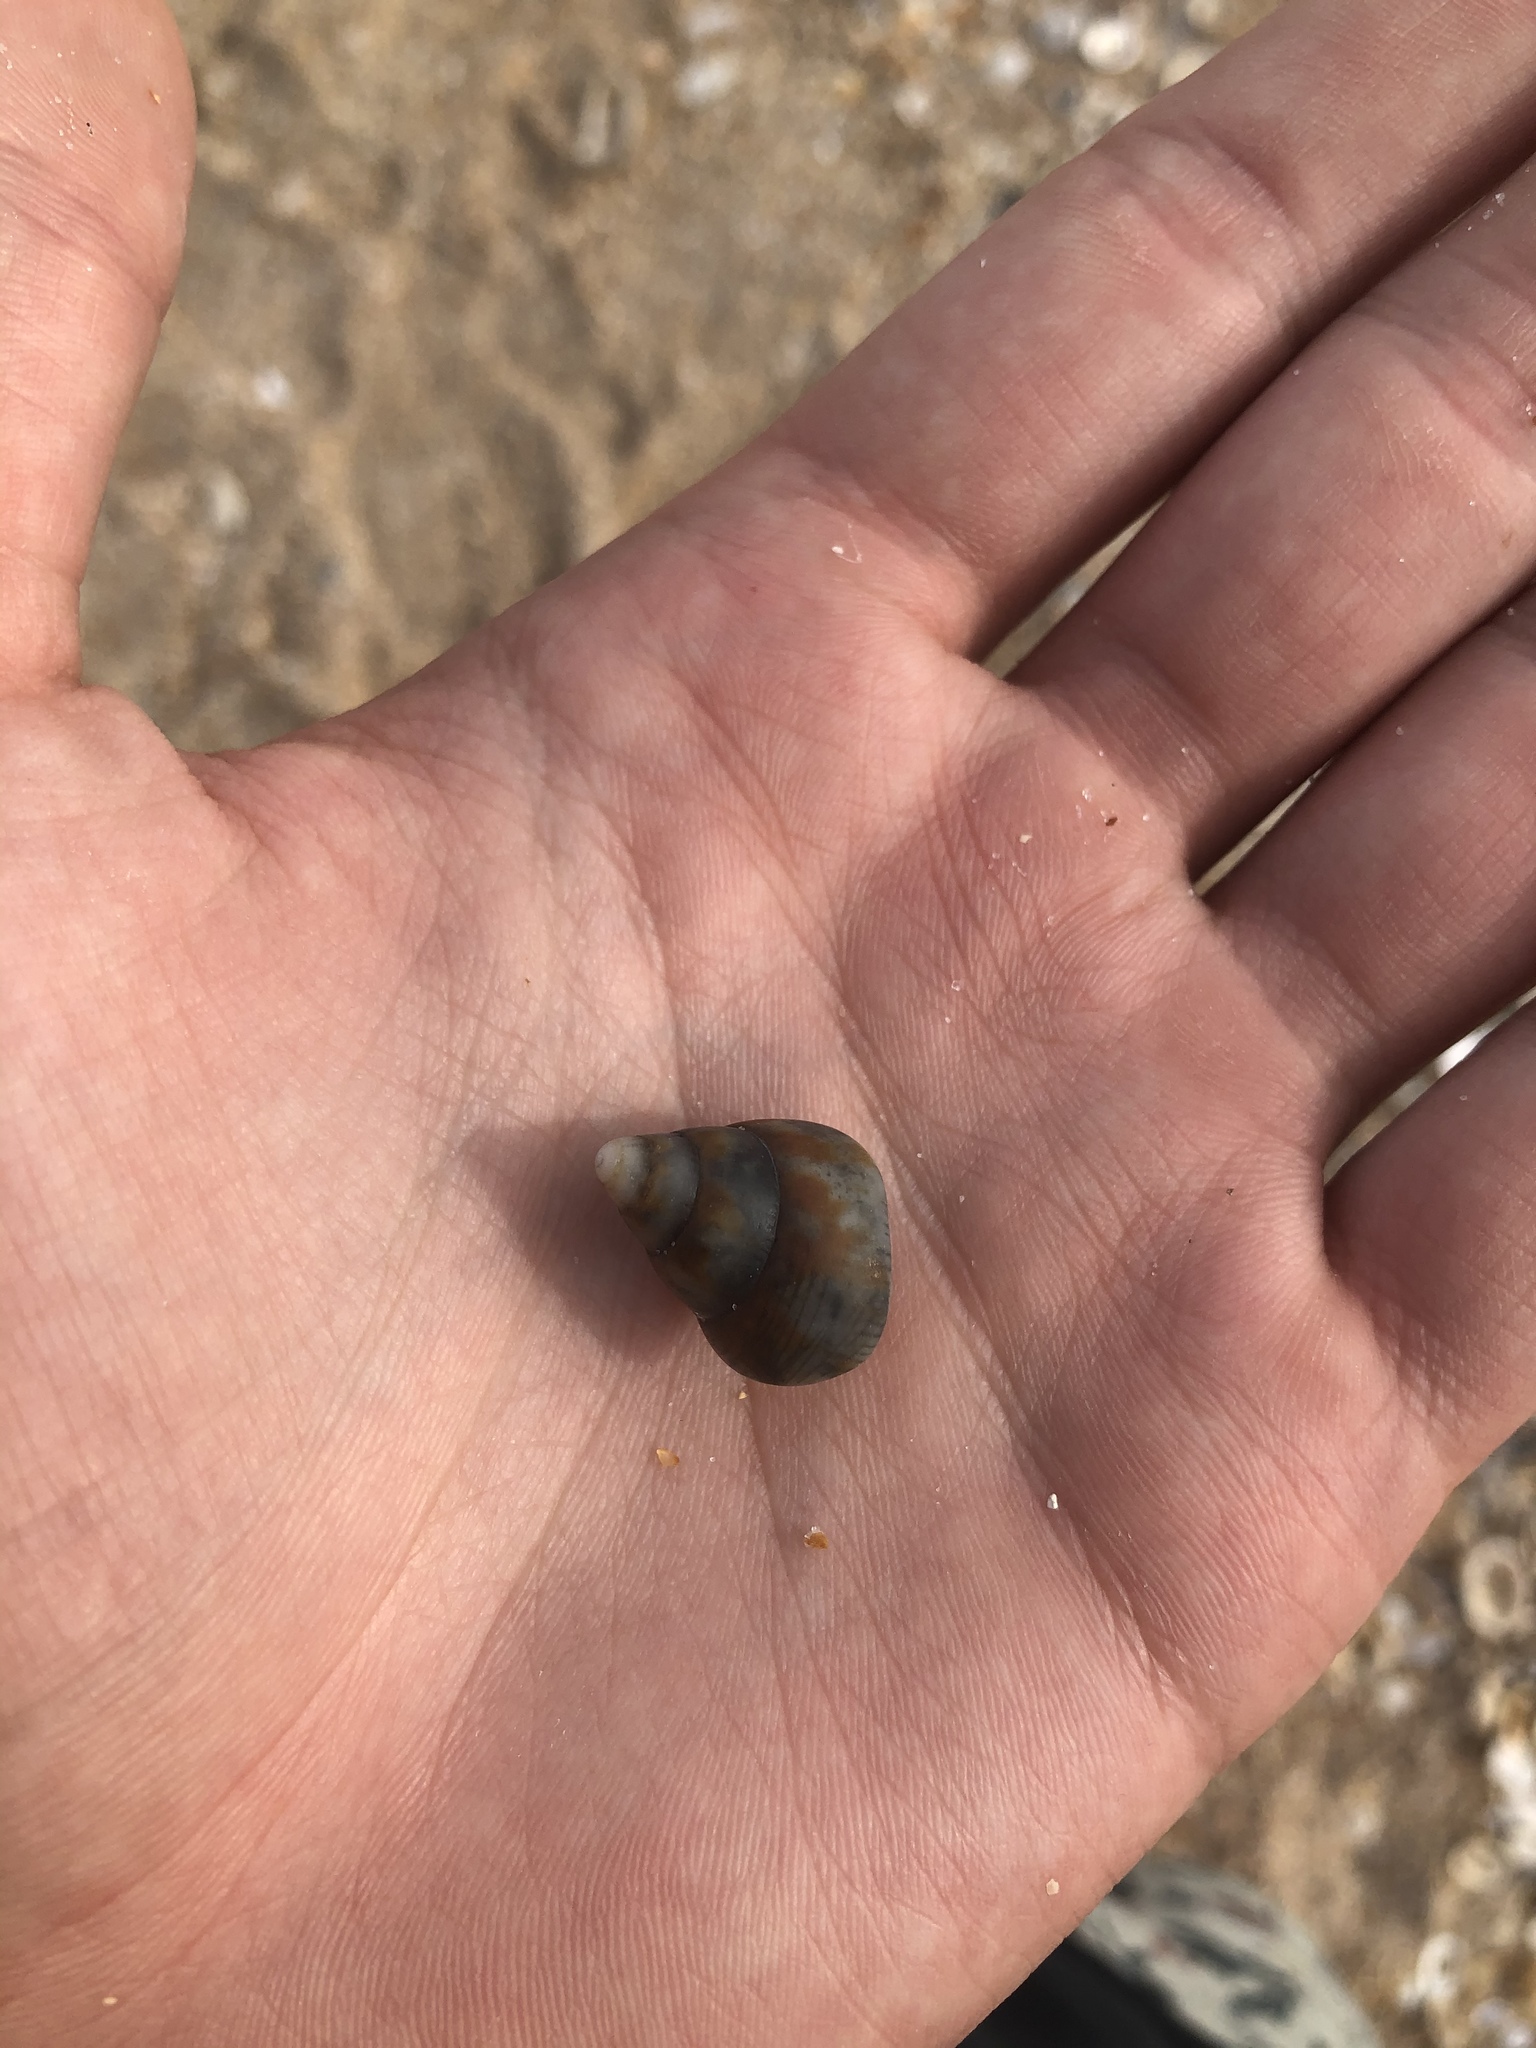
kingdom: Animalia
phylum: Mollusca
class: Gastropoda
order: Neogastropoda
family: Fasciolariidae
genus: Fasciolaria
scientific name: Fasciolaria tulipa
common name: True tulip
